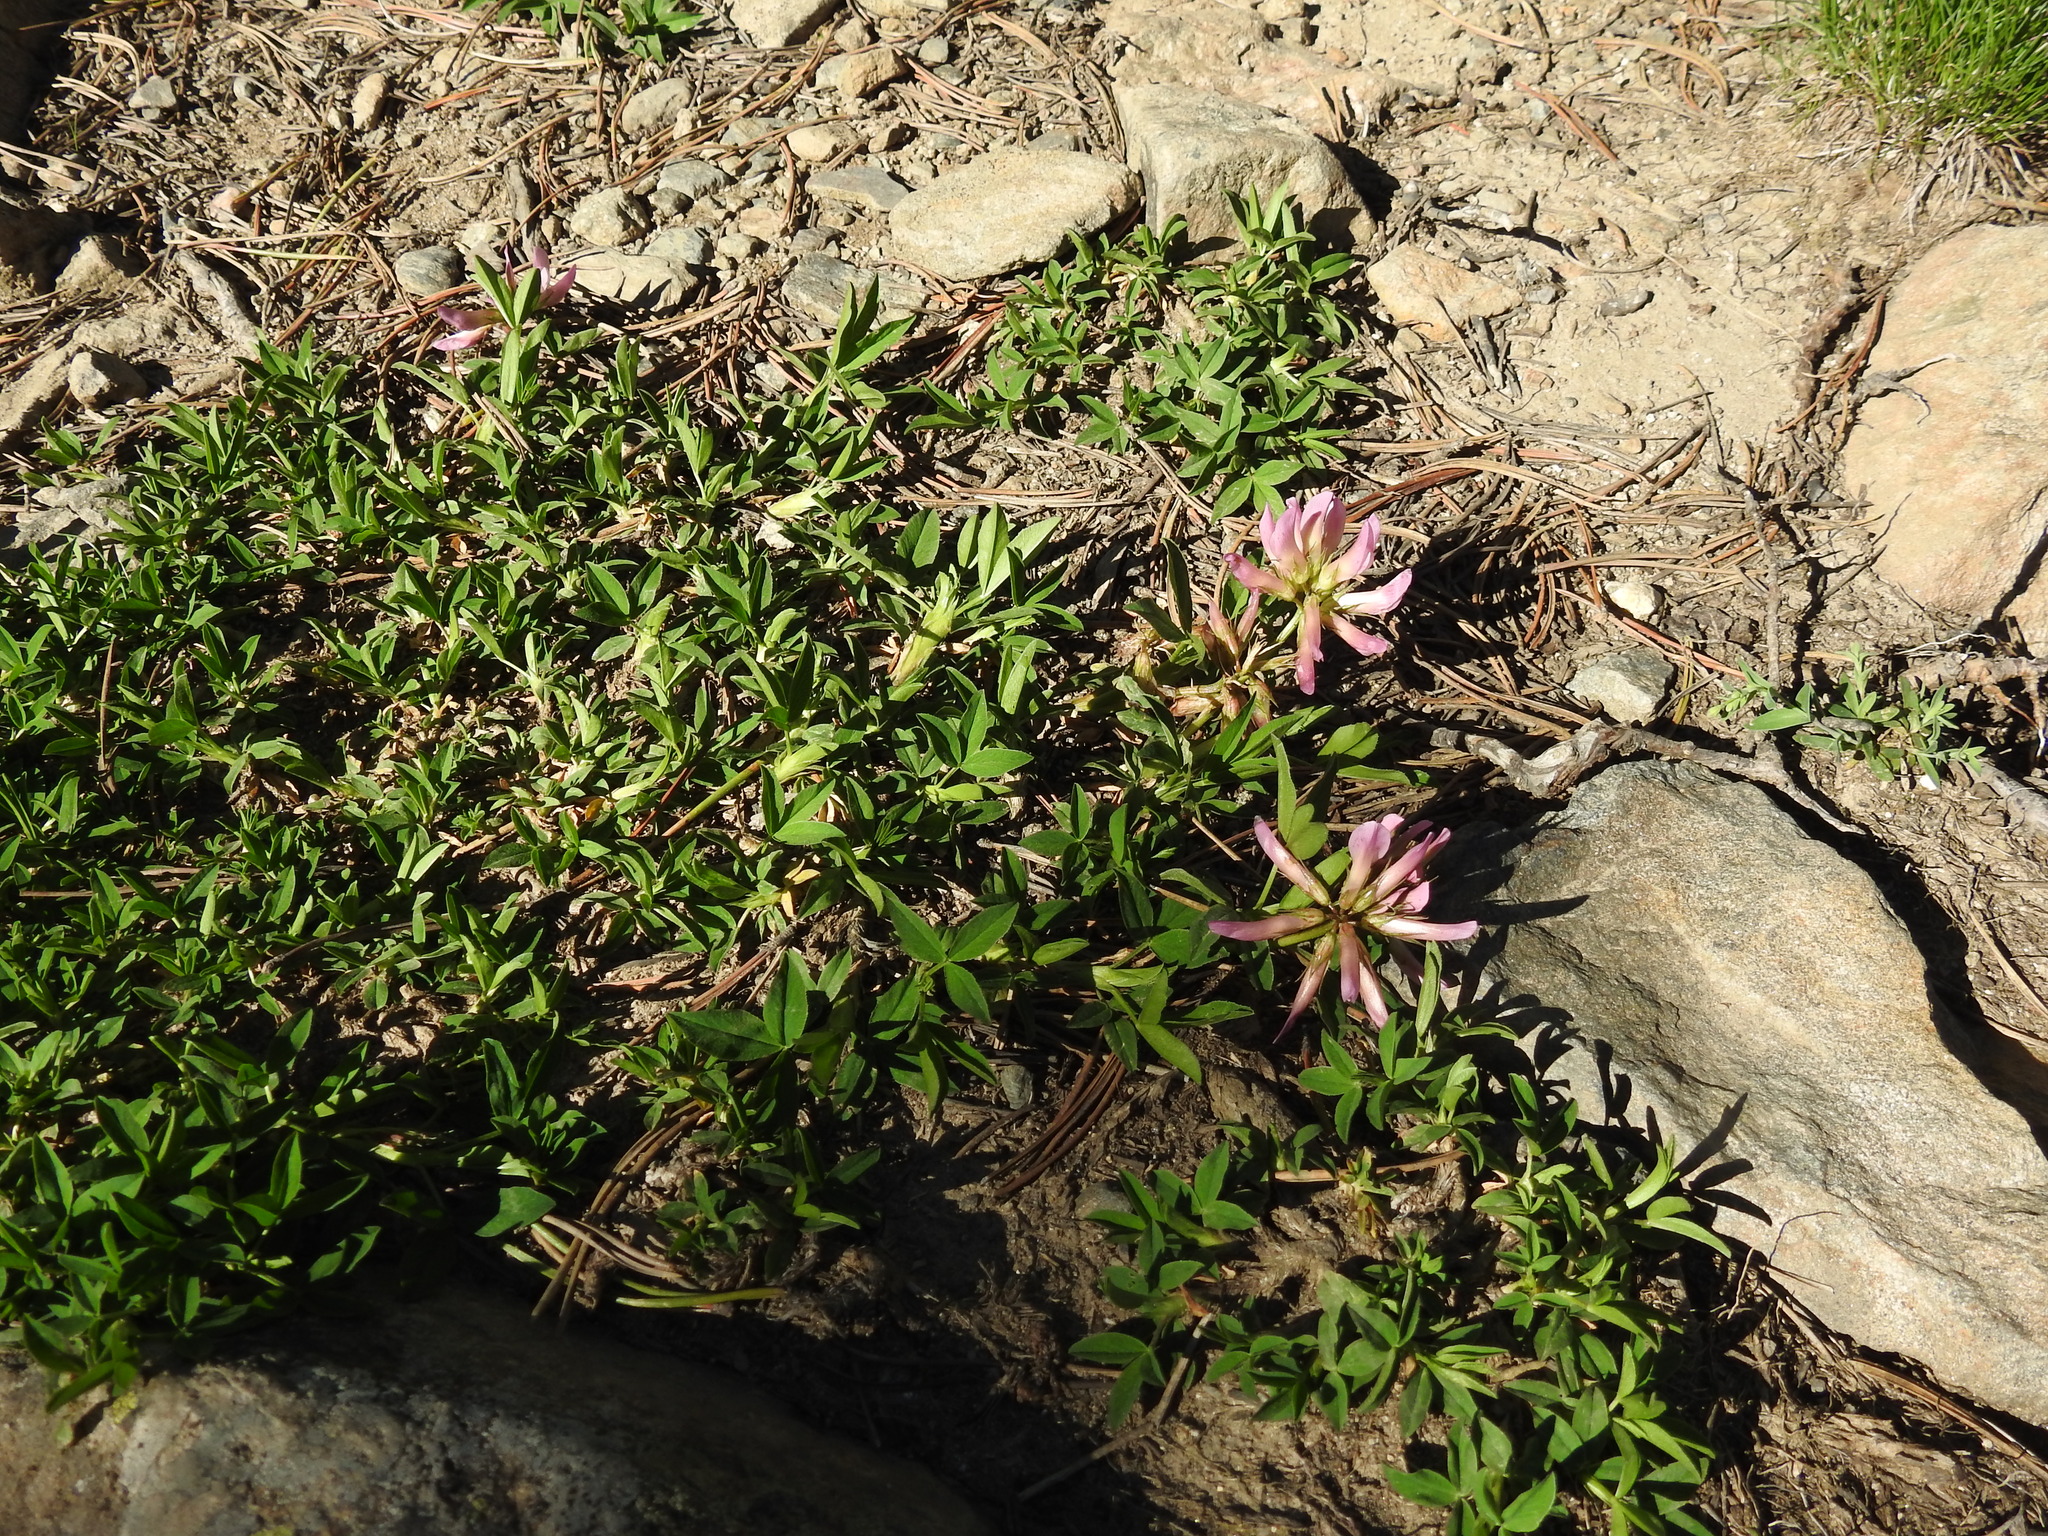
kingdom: Plantae
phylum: Tracheophyta
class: Magnoliopsida
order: Fabales
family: Fabaceae
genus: Trifolium
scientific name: Trifolium alpinum
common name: Alpine clover
